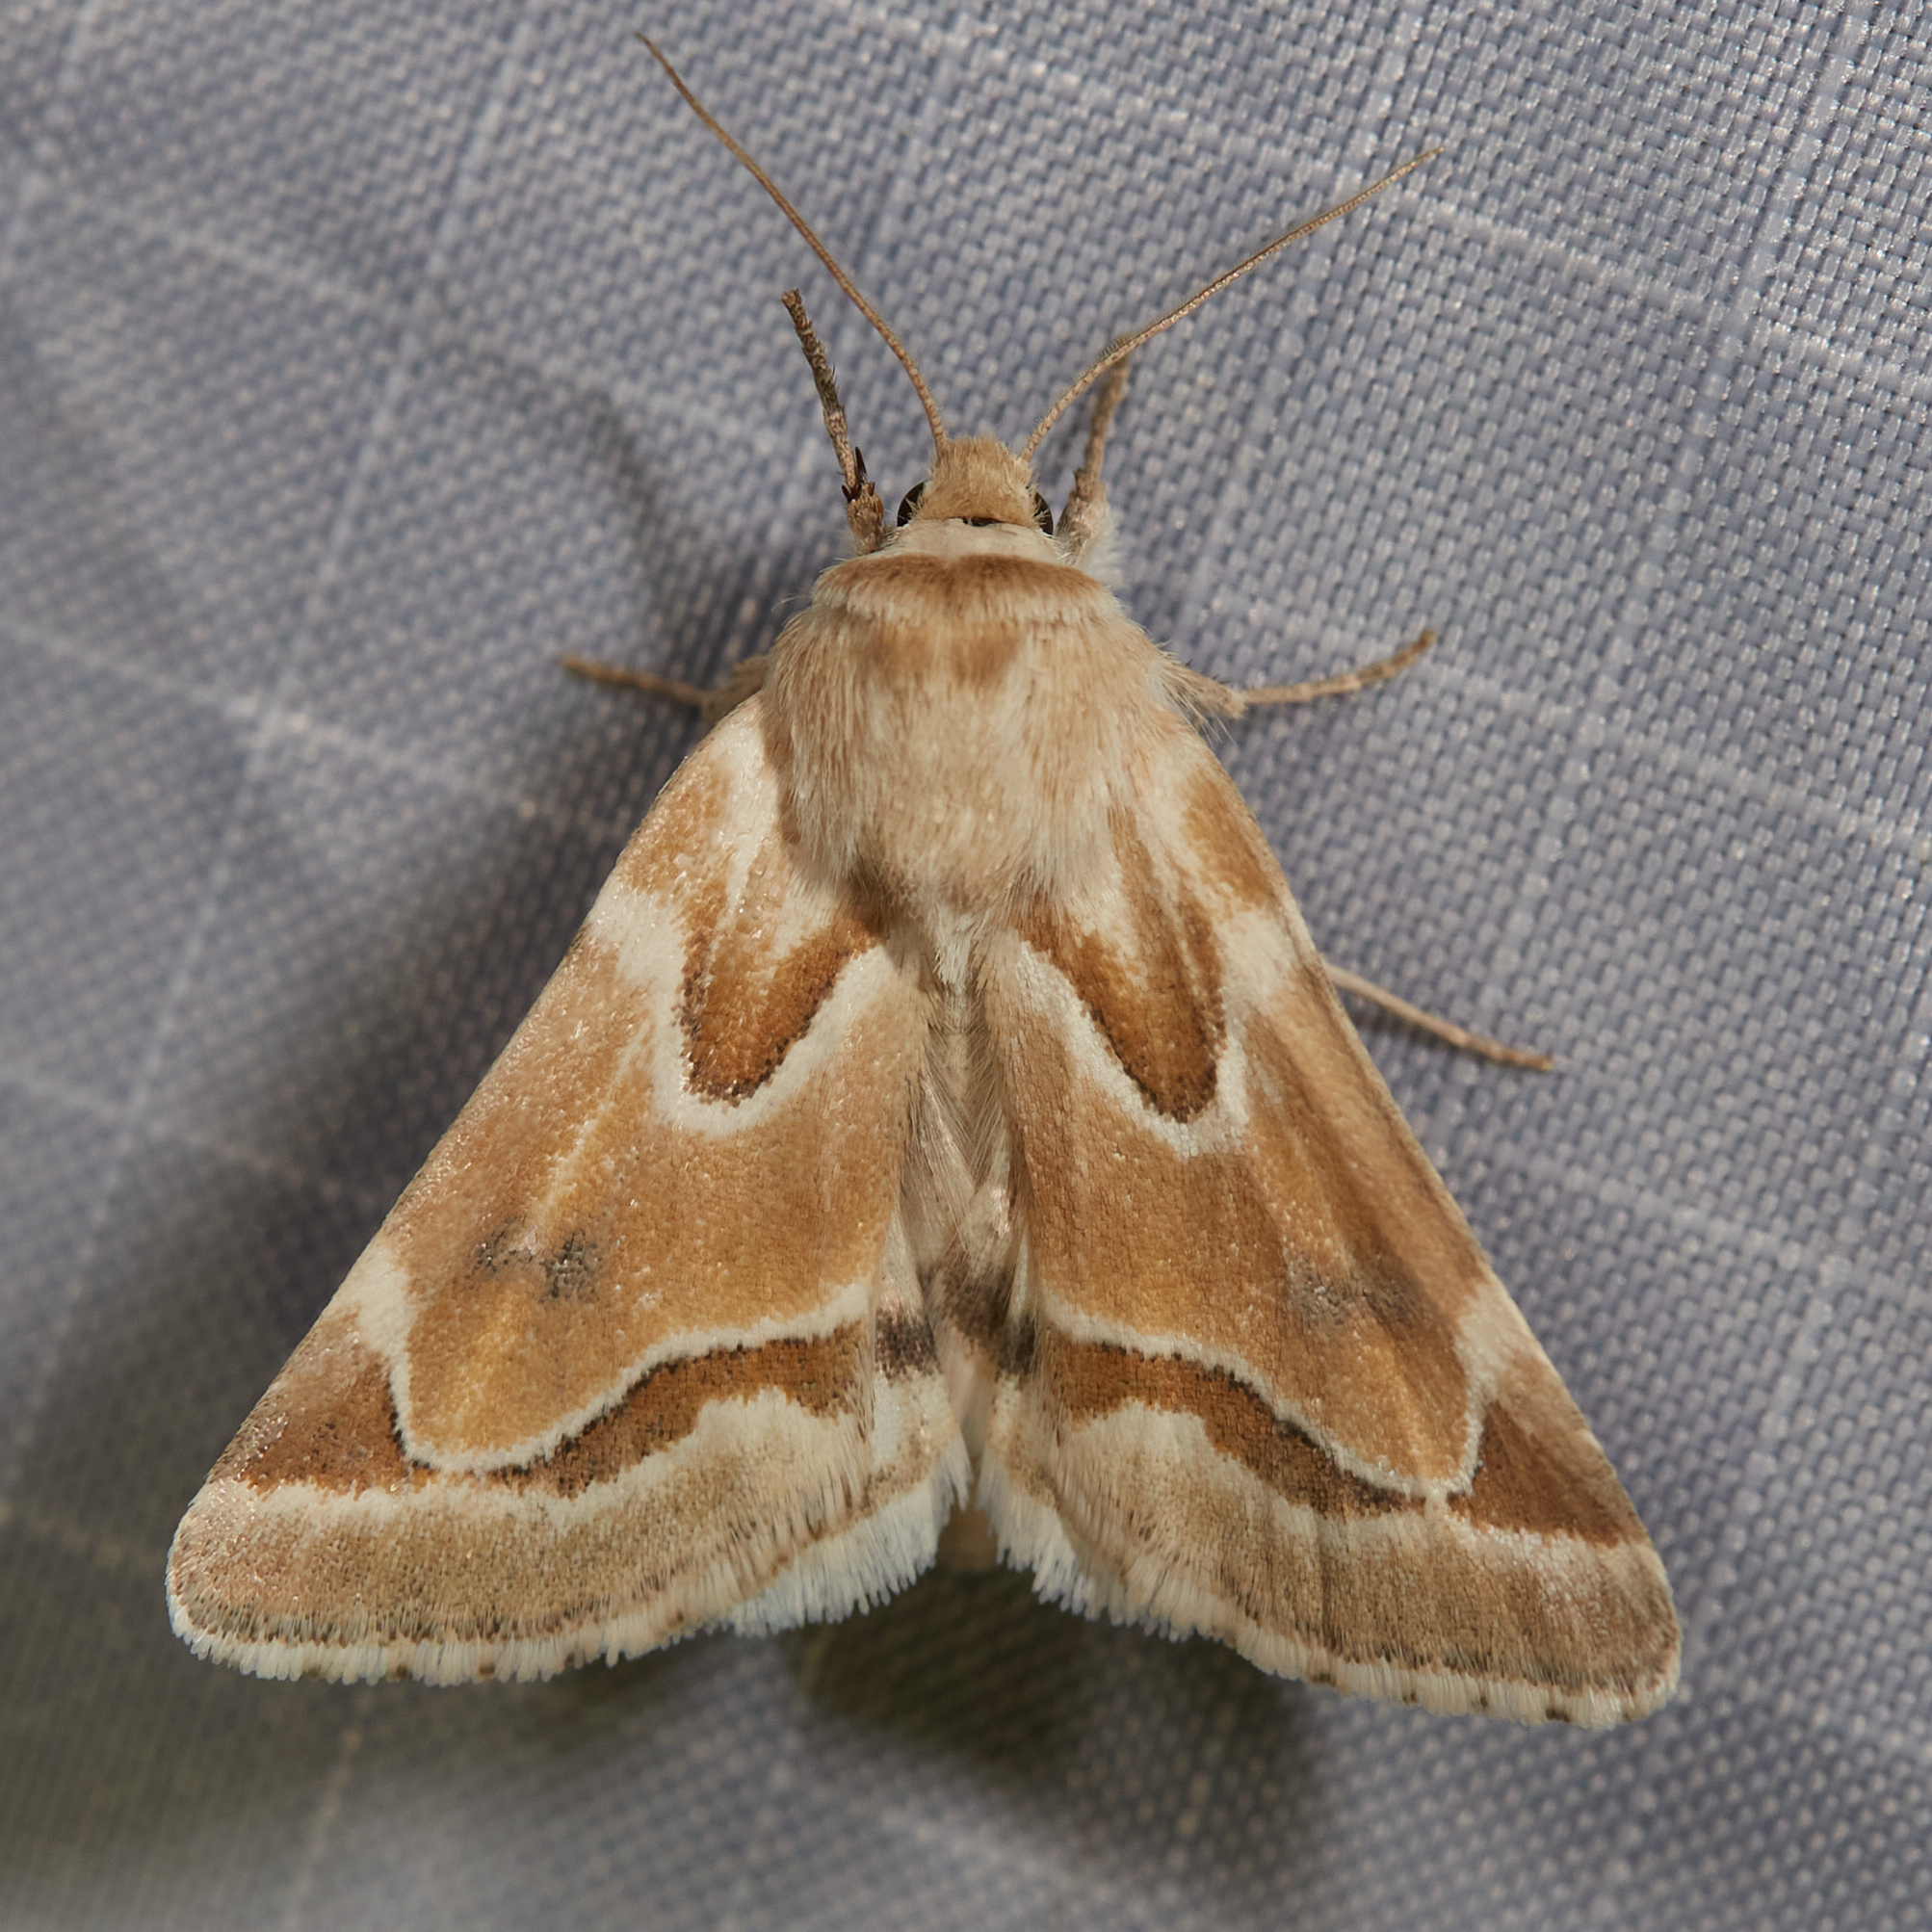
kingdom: Animalia
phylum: Arthropoda
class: Insecta
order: Lepidoptera
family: Noctuidae
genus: Schinia
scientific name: Schinia acutilinea
